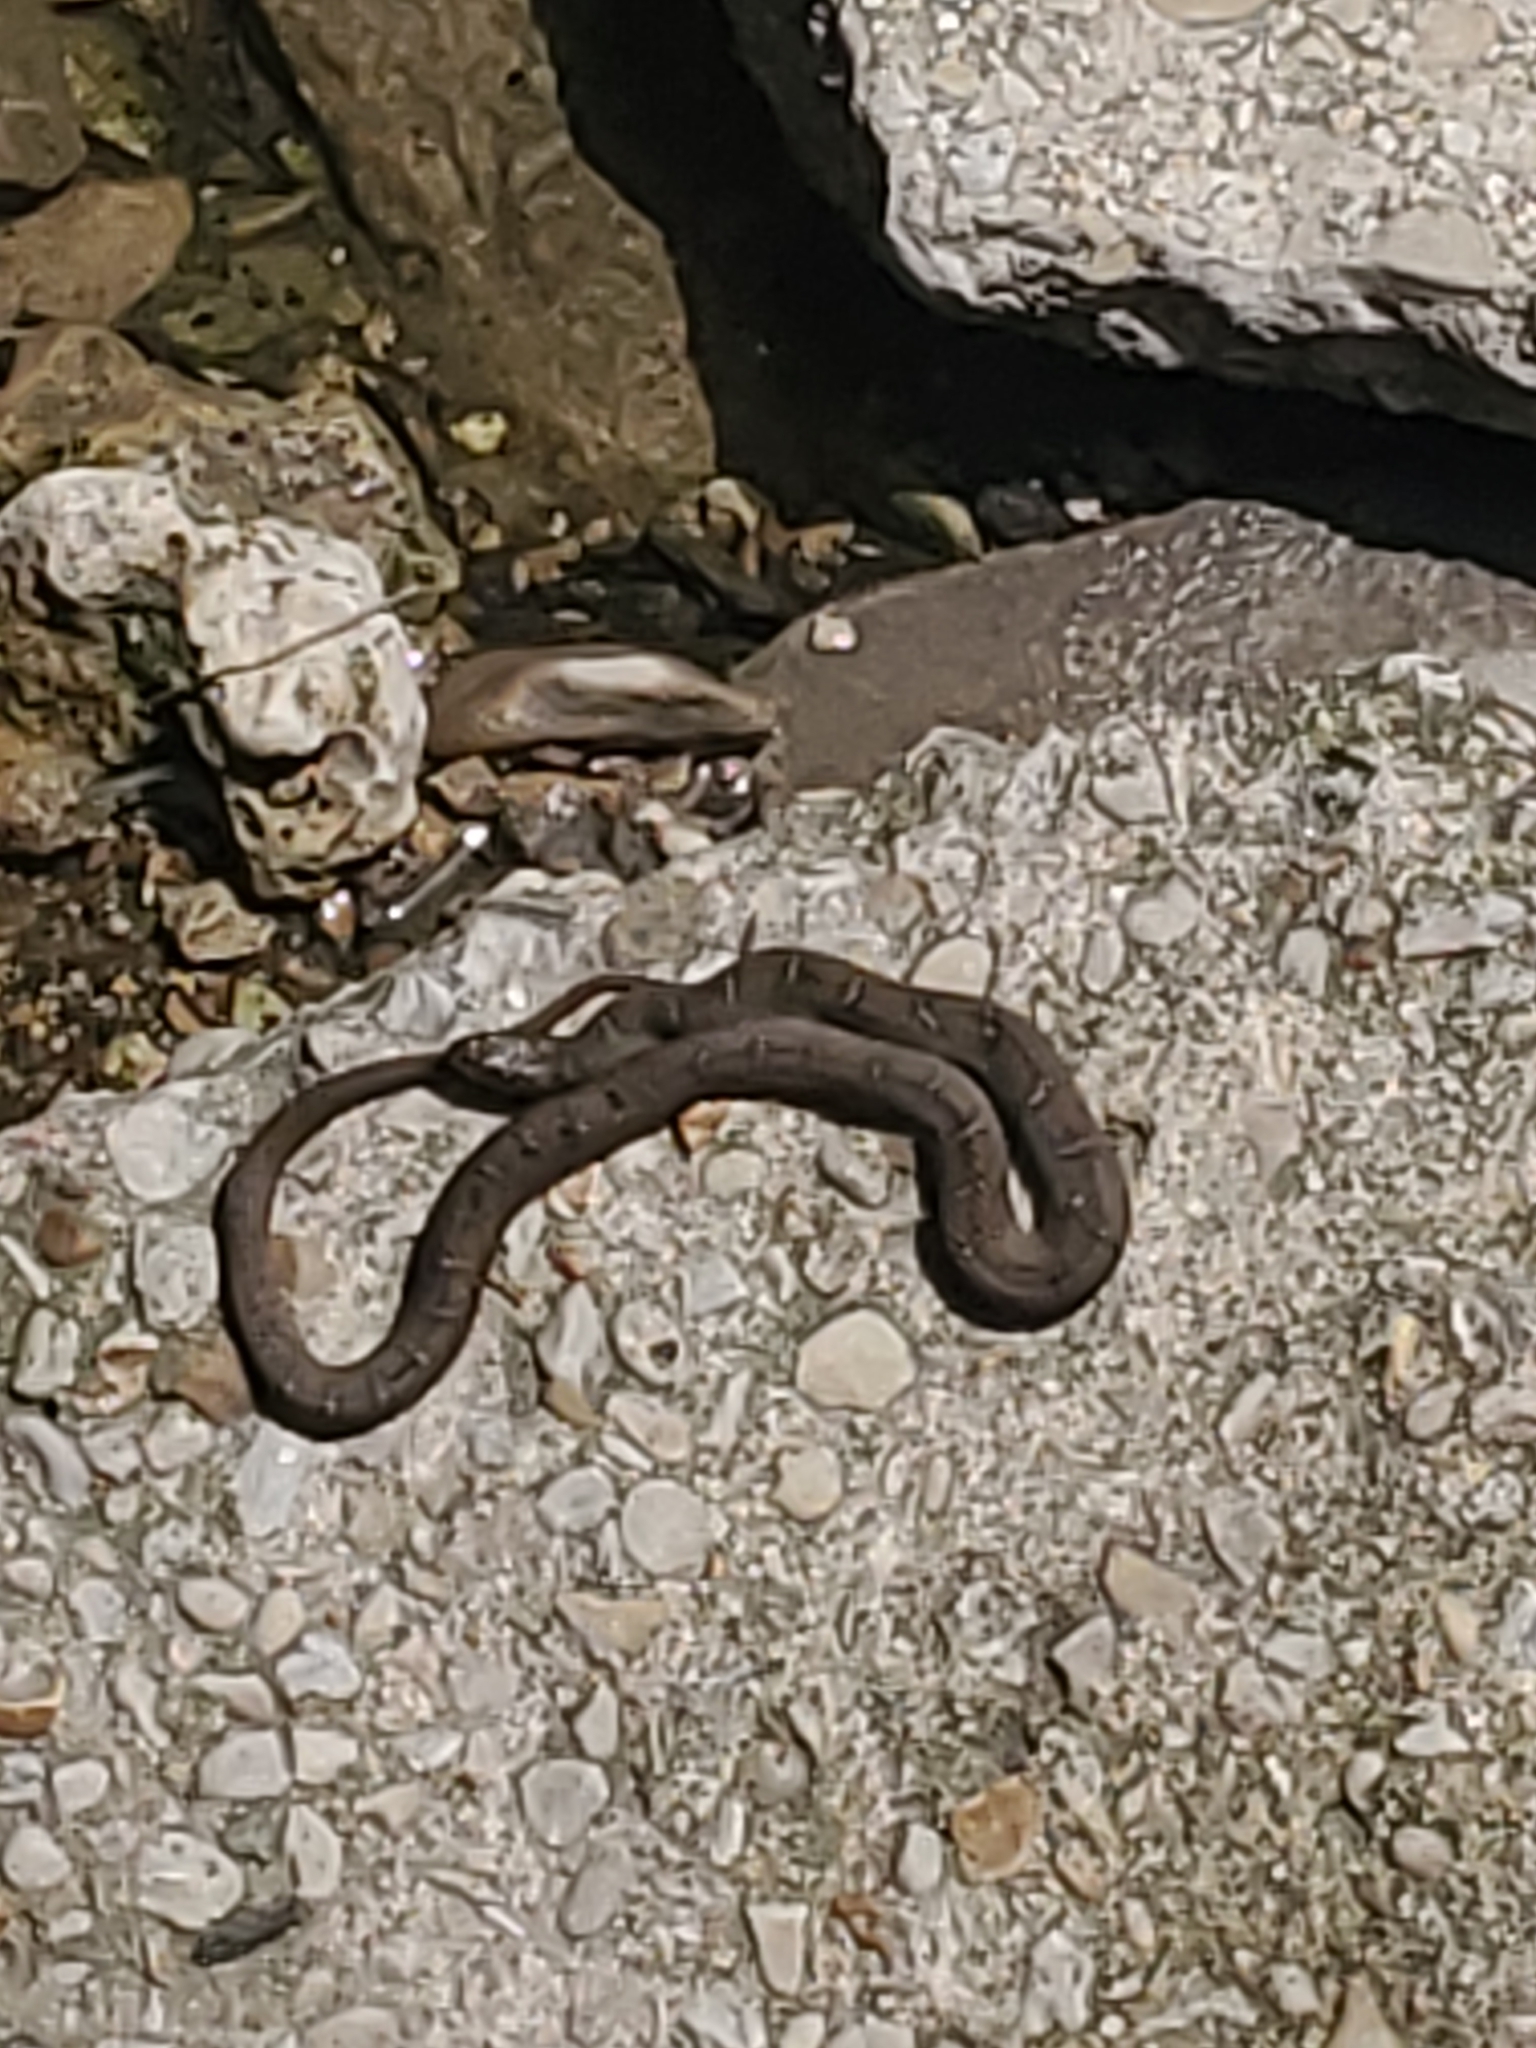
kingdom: Animalia
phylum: Chordata
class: Squamata
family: Colubridae
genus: Nerodia
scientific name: Nerodia erythrogaster
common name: Plainbelly water snake
